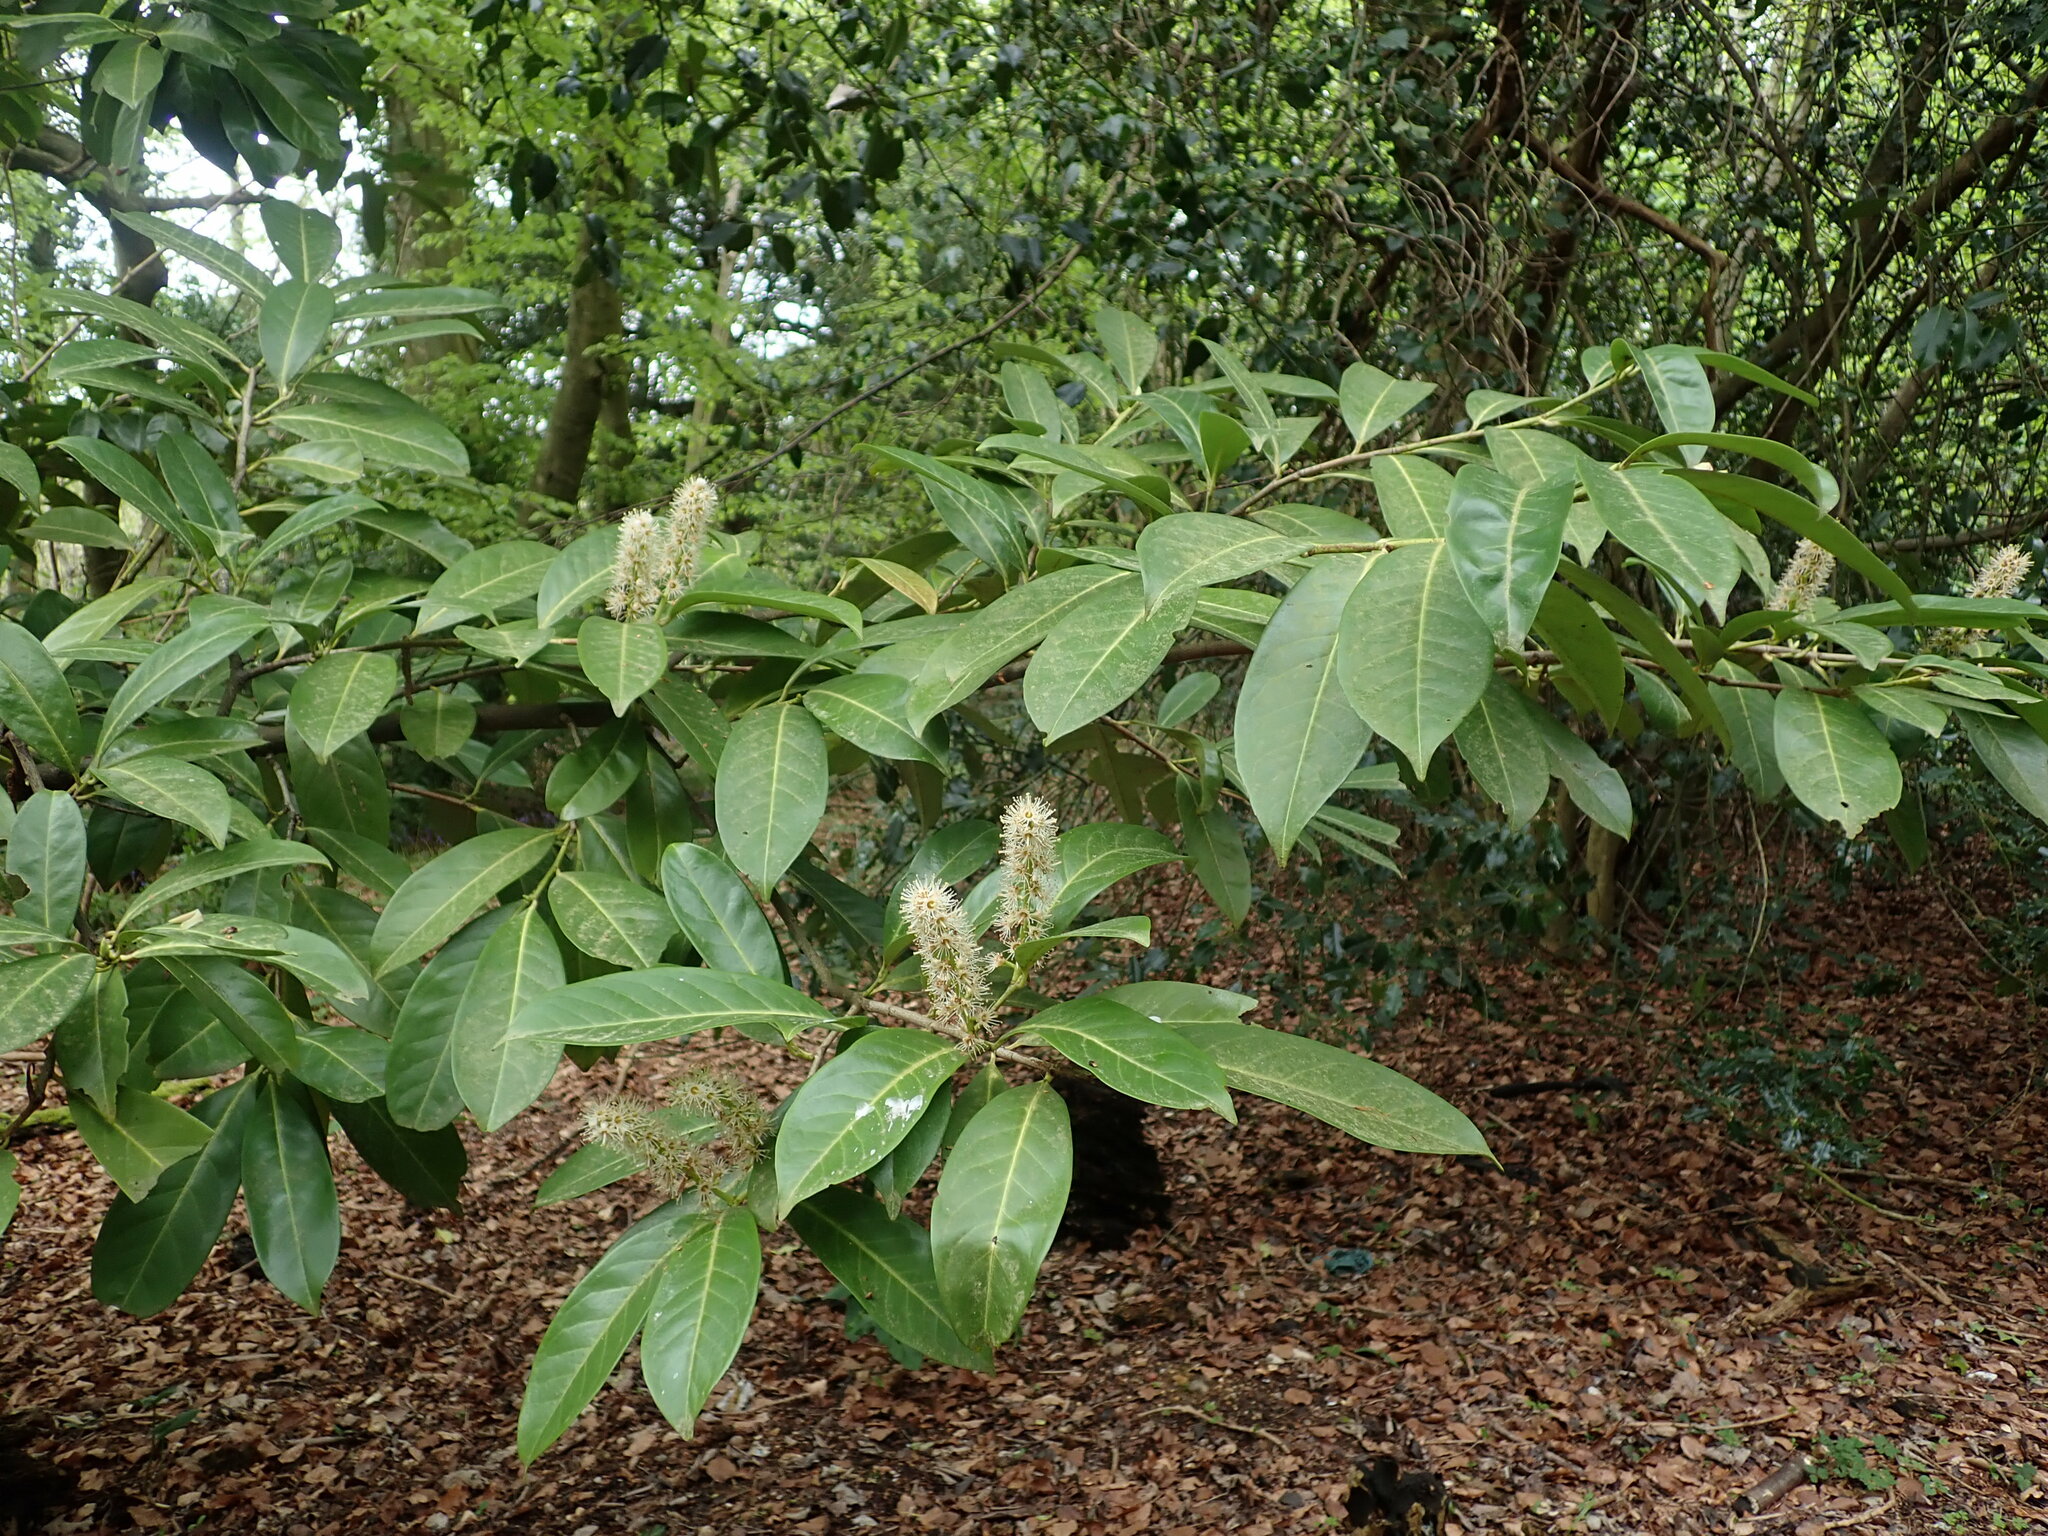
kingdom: Plantae
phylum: Tracheophyta
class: Magnoliopsida
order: Rosales
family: Rosaceae
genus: Prunus
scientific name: Prunus laurocerasus
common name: Cherry laurel
